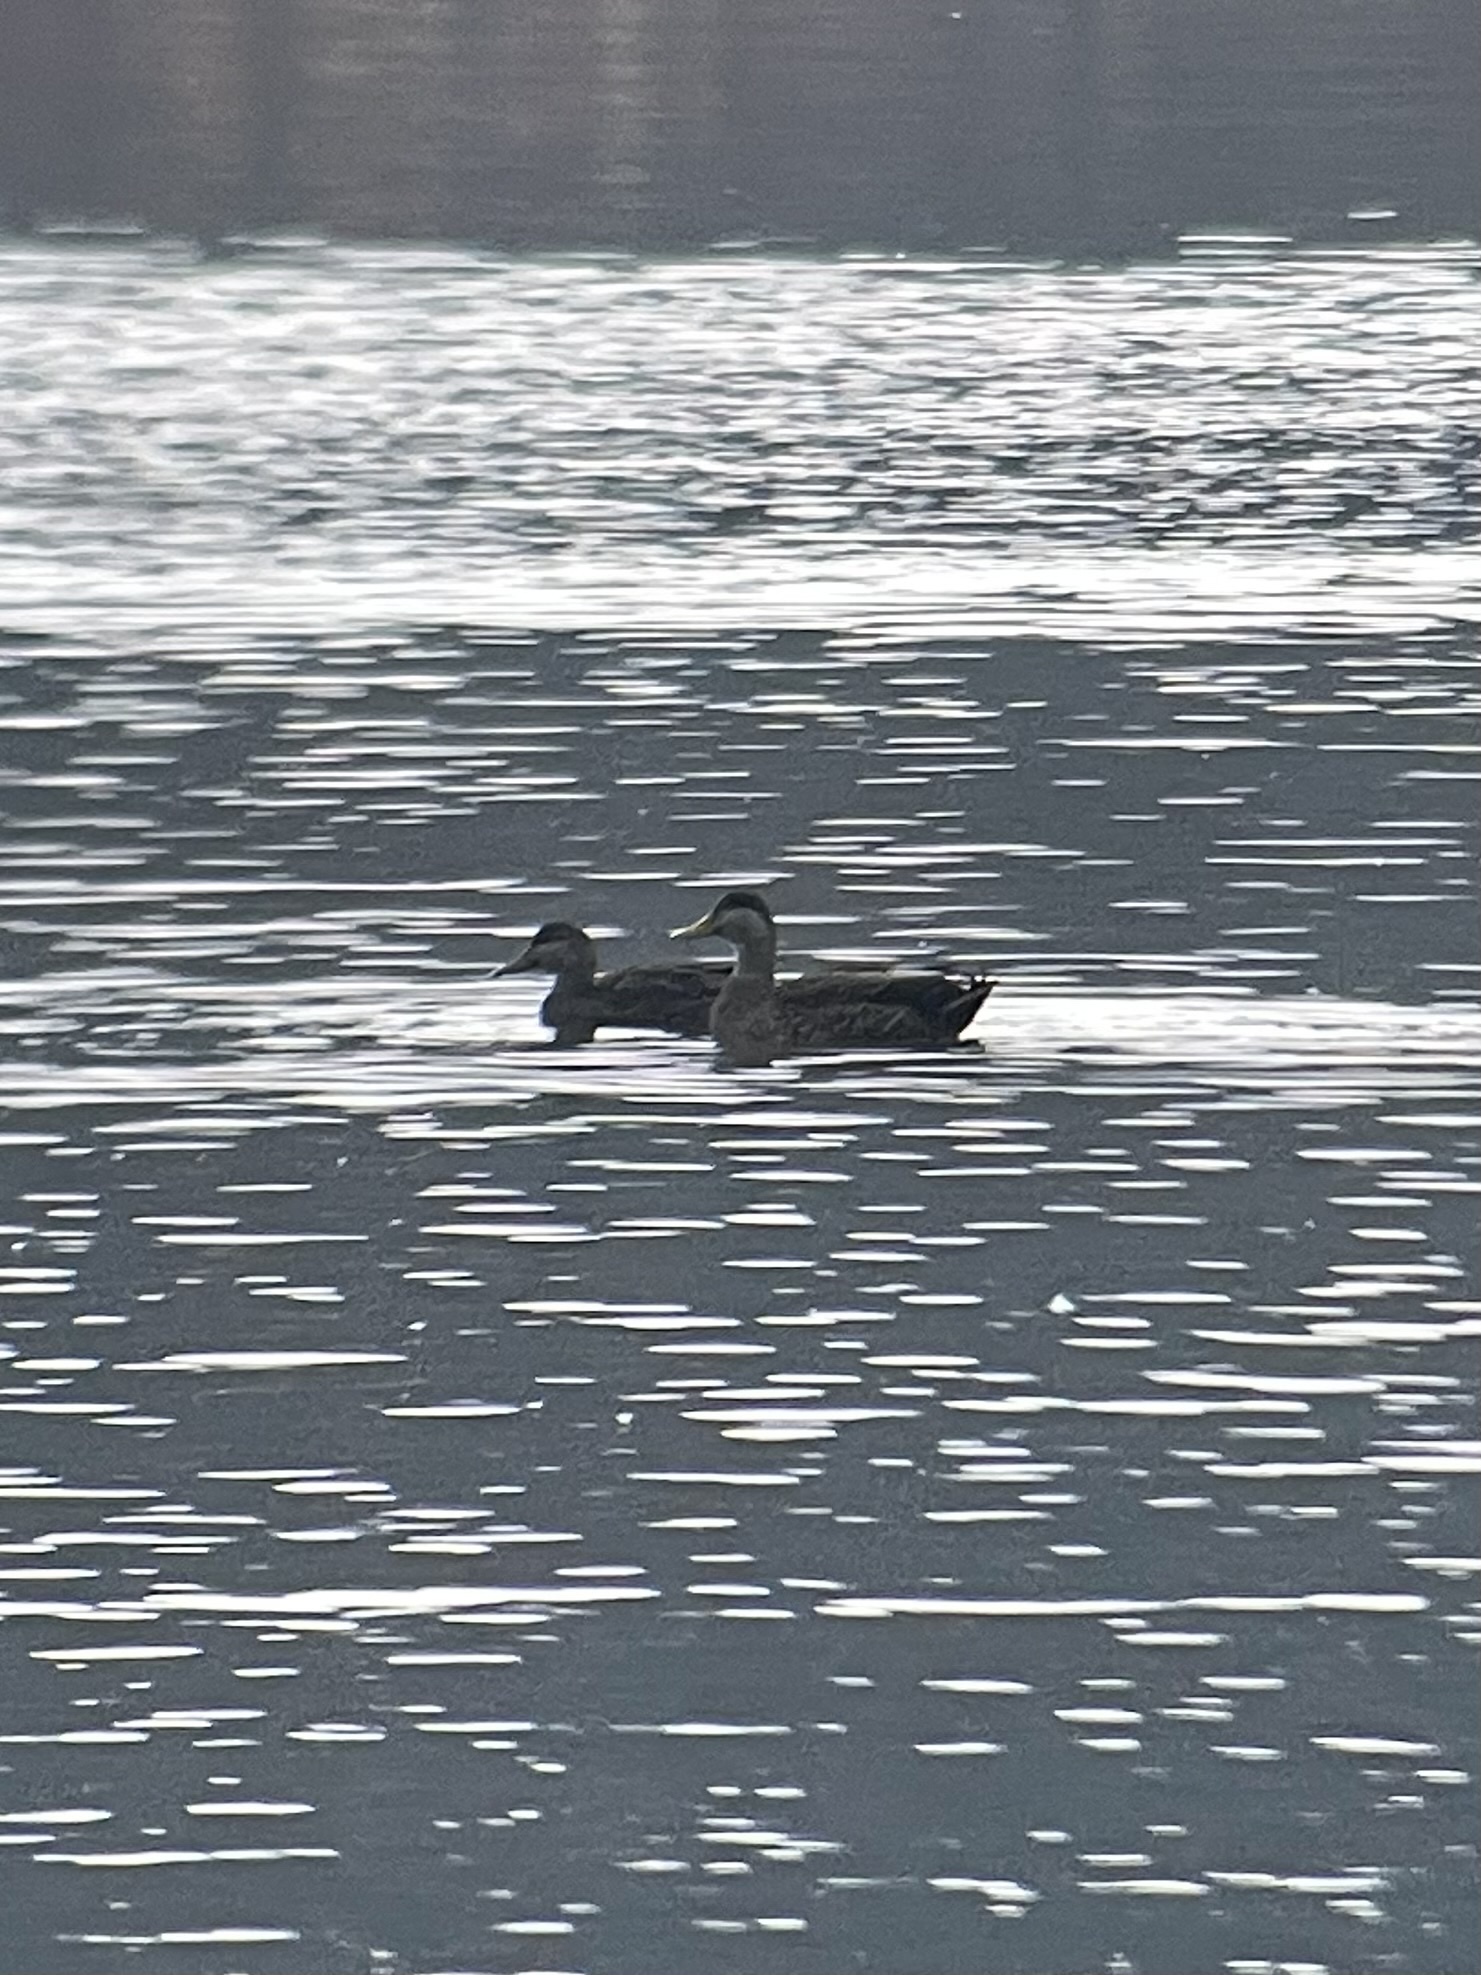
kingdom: Animalia
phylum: Chordata
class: Aves
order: Anseriformes
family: Anatidae
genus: Anas
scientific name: Anas
